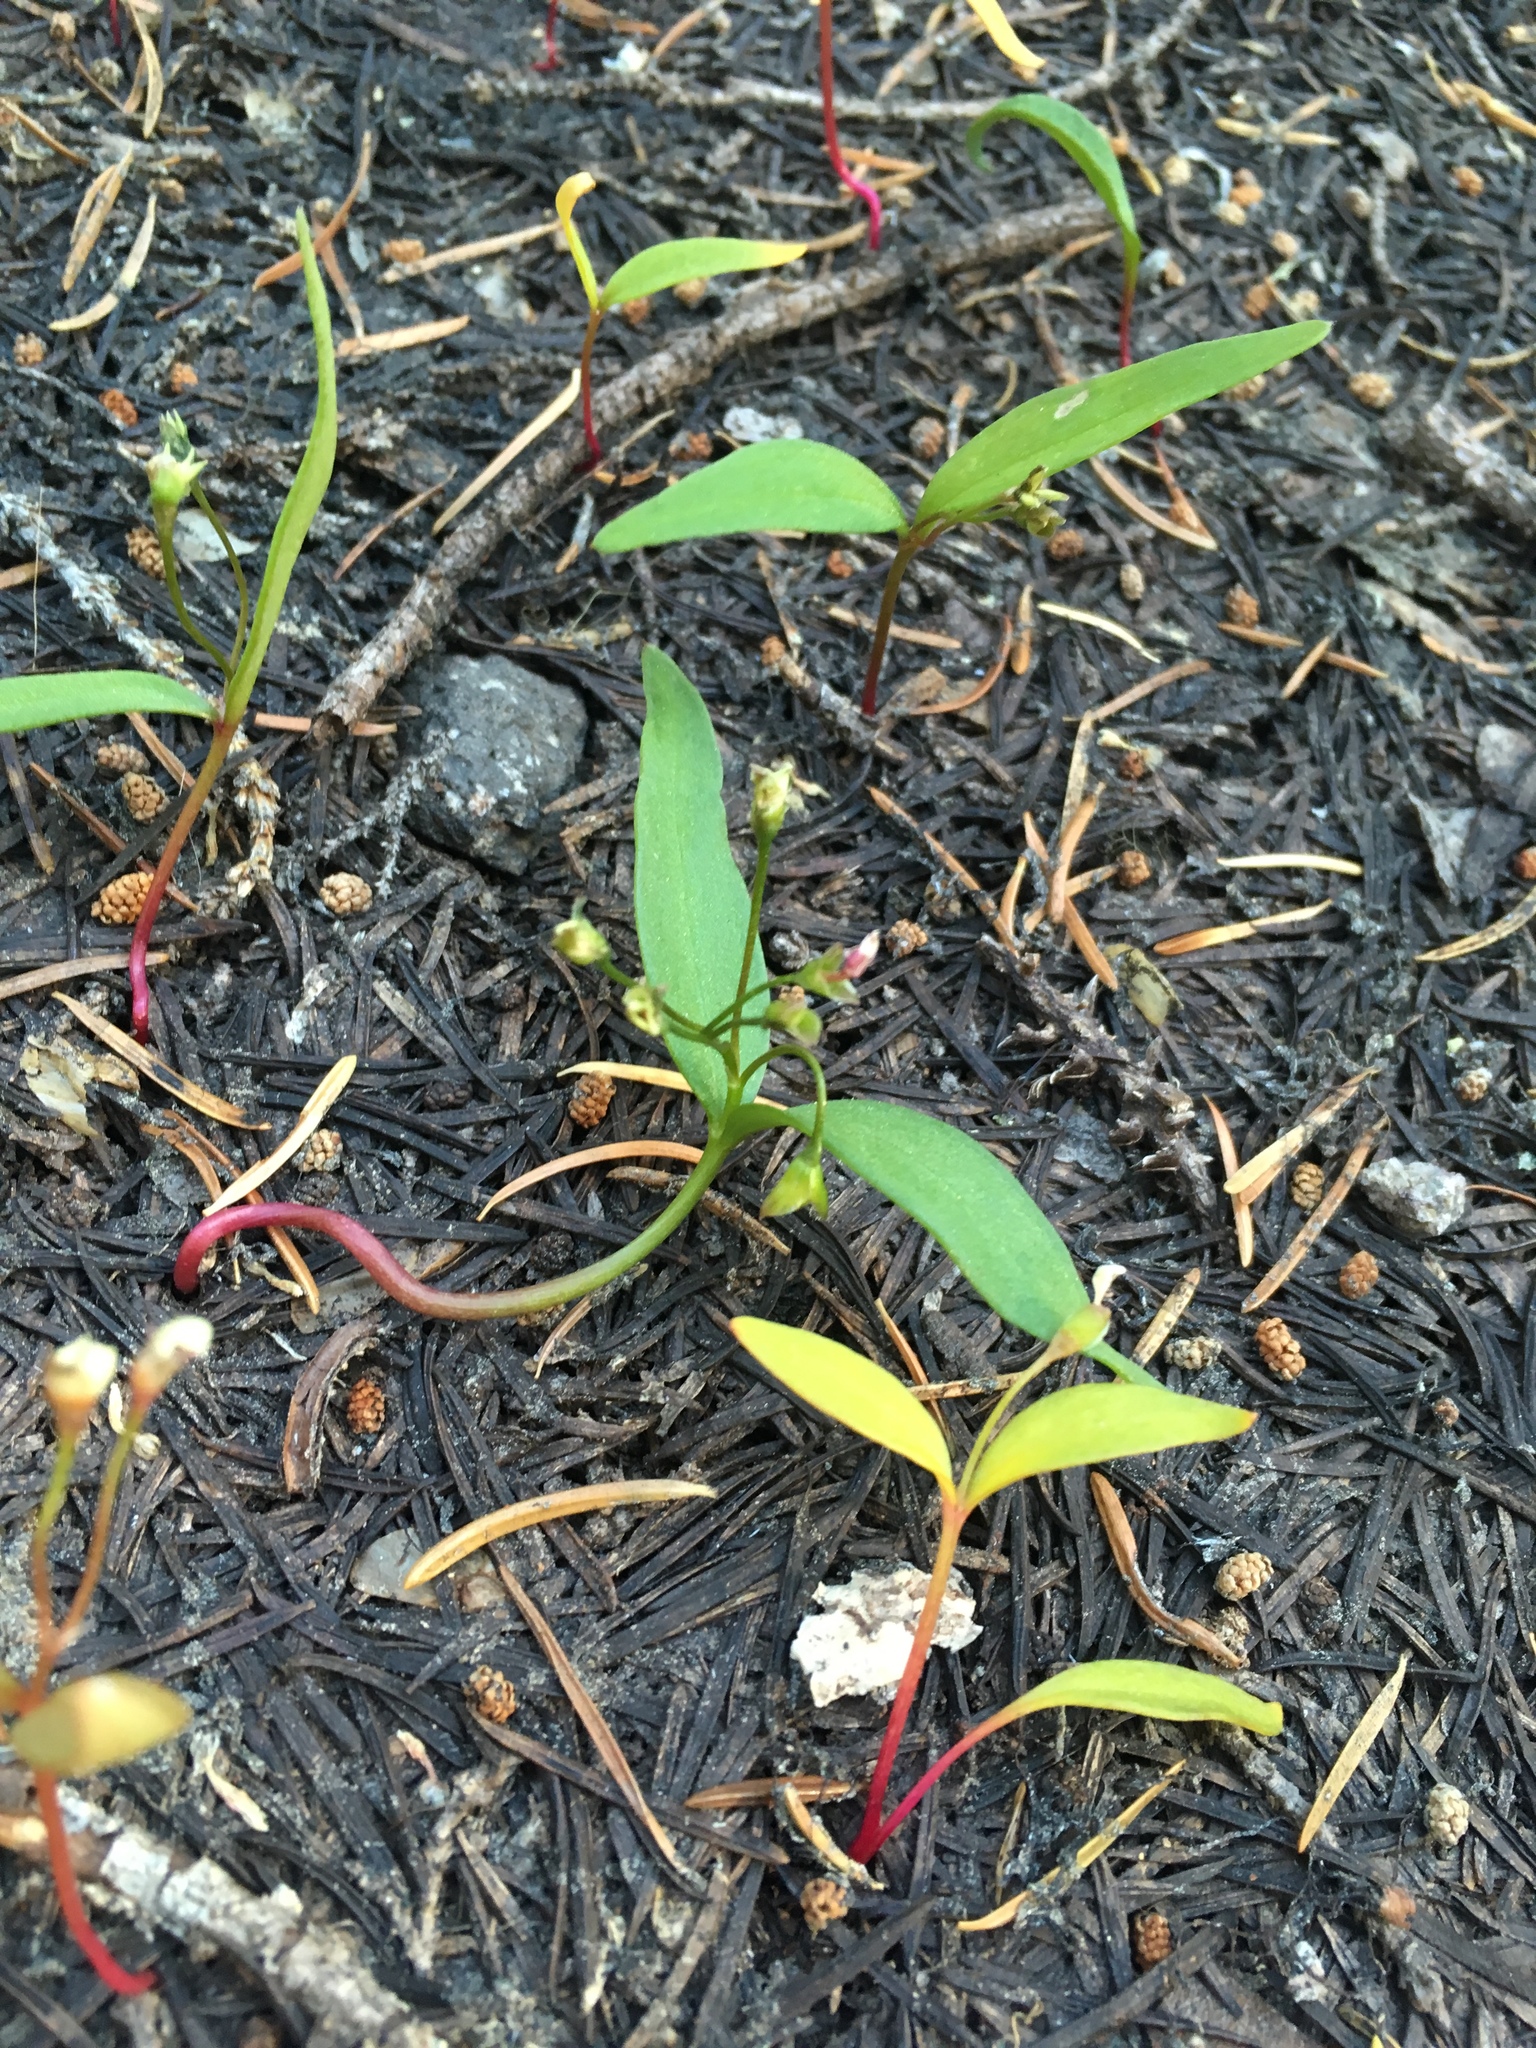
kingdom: Plantae
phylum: Tracheophyta
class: Magnoliopsida
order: Caryophyllales
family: Montiaceae
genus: Claytonia
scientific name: Claytonia lanceolata
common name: Western spring-beauty
